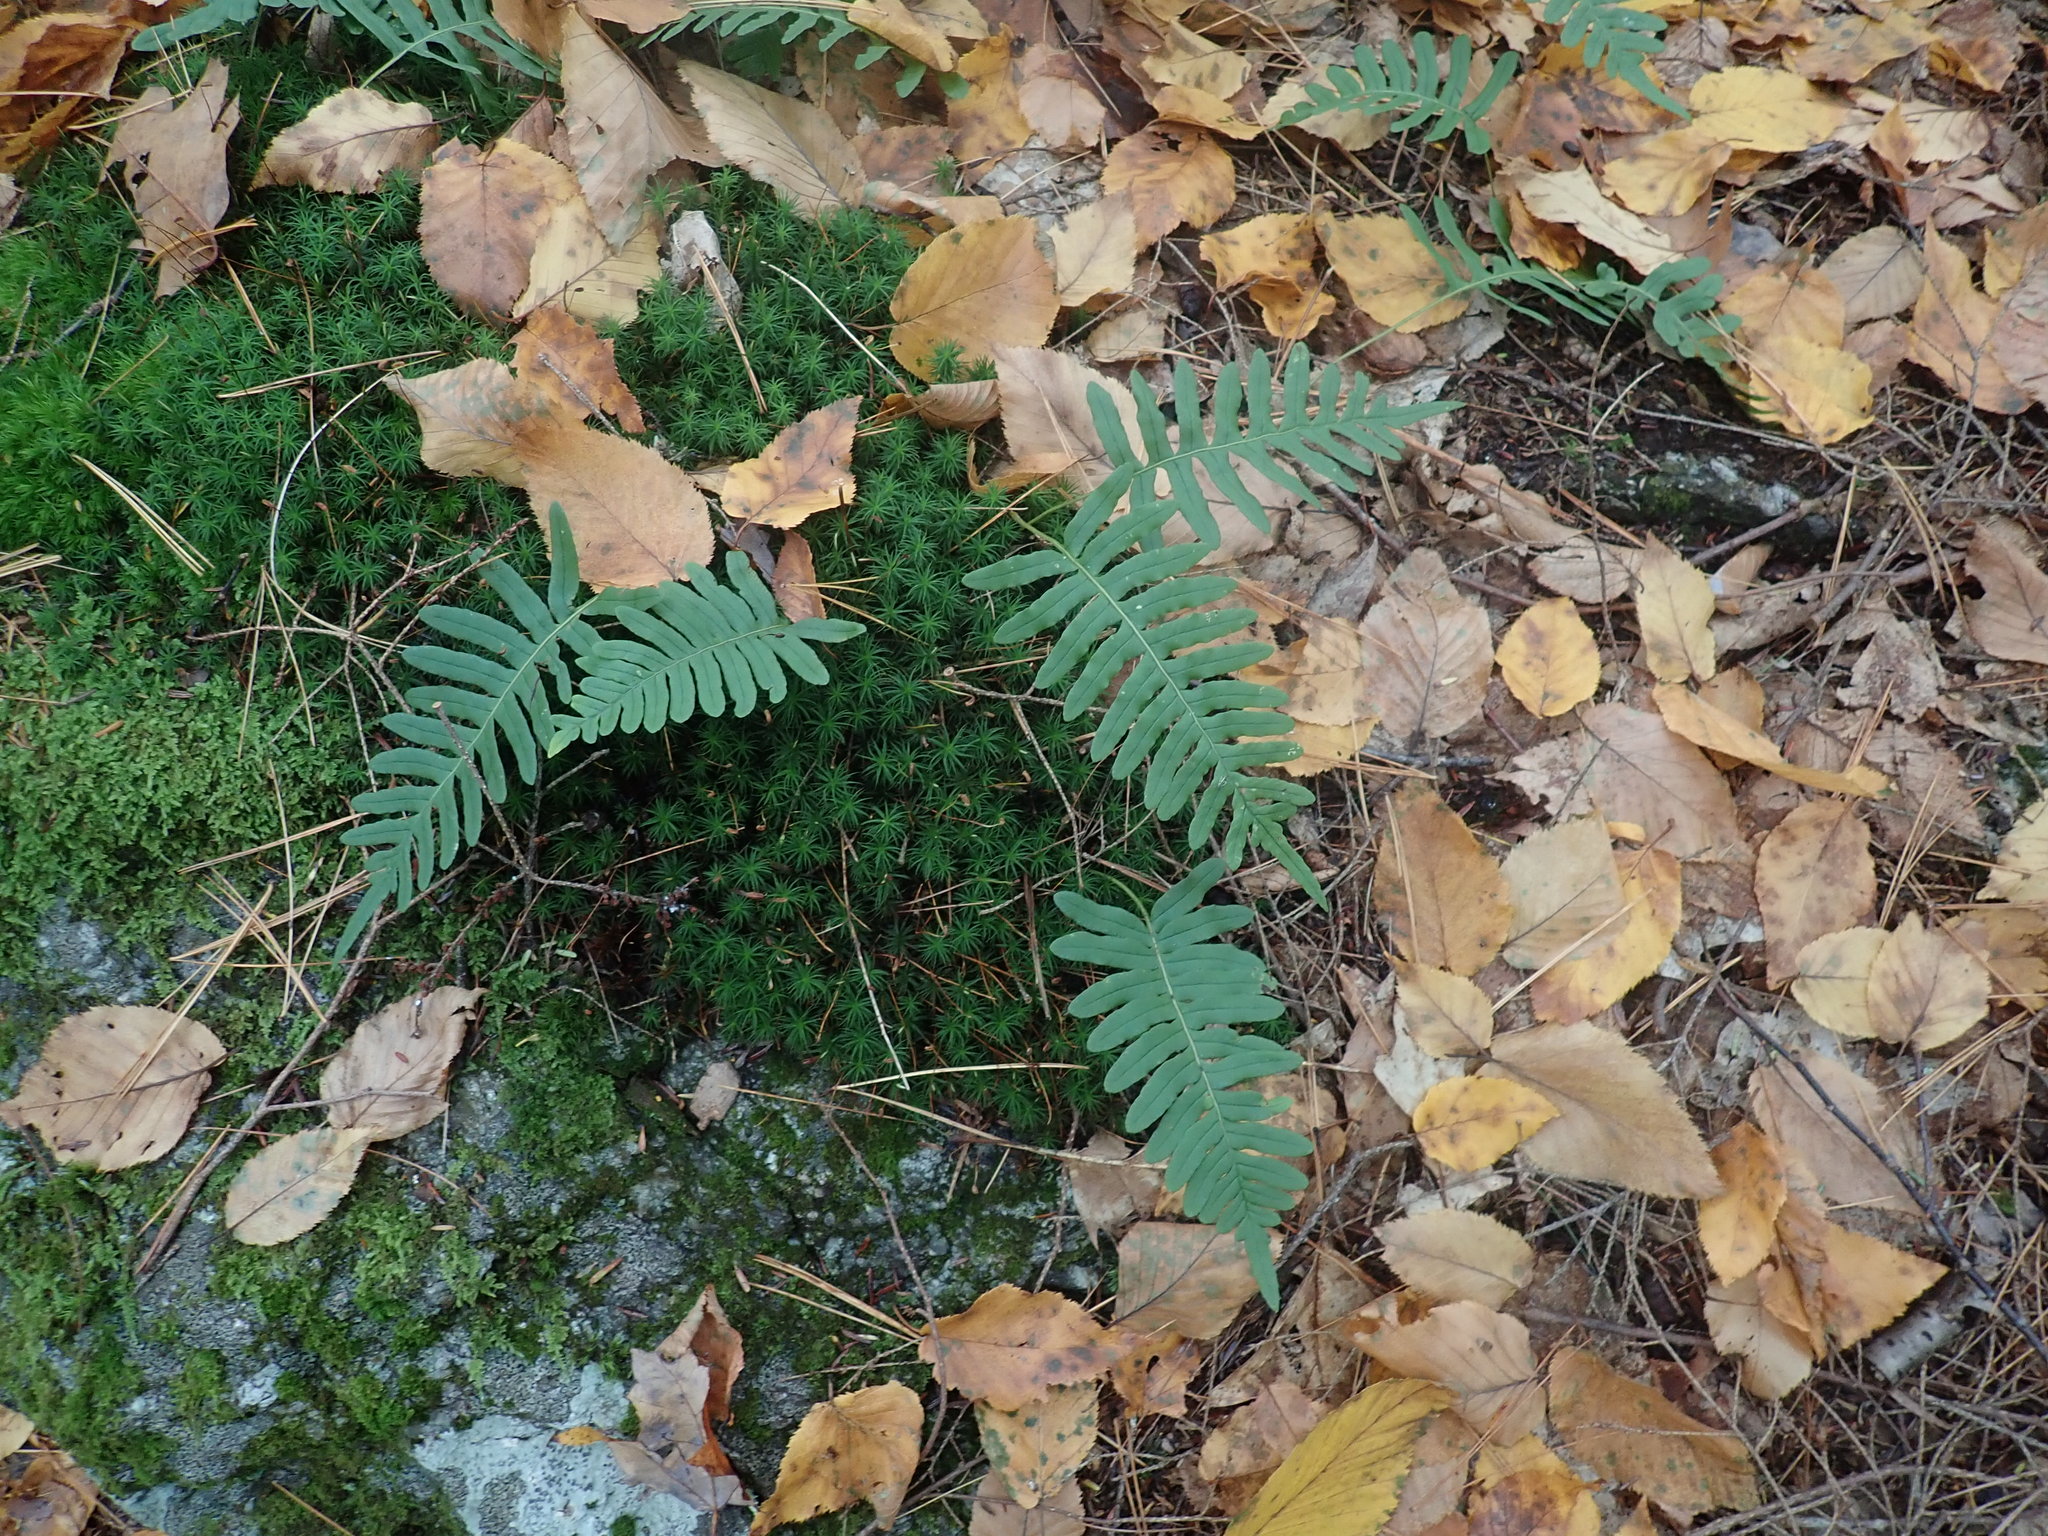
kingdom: Plantae
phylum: Tracheophyta
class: Polypodiopsida
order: Polypodiales
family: Polypodiaceae
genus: Polypodium
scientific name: Polypodium
